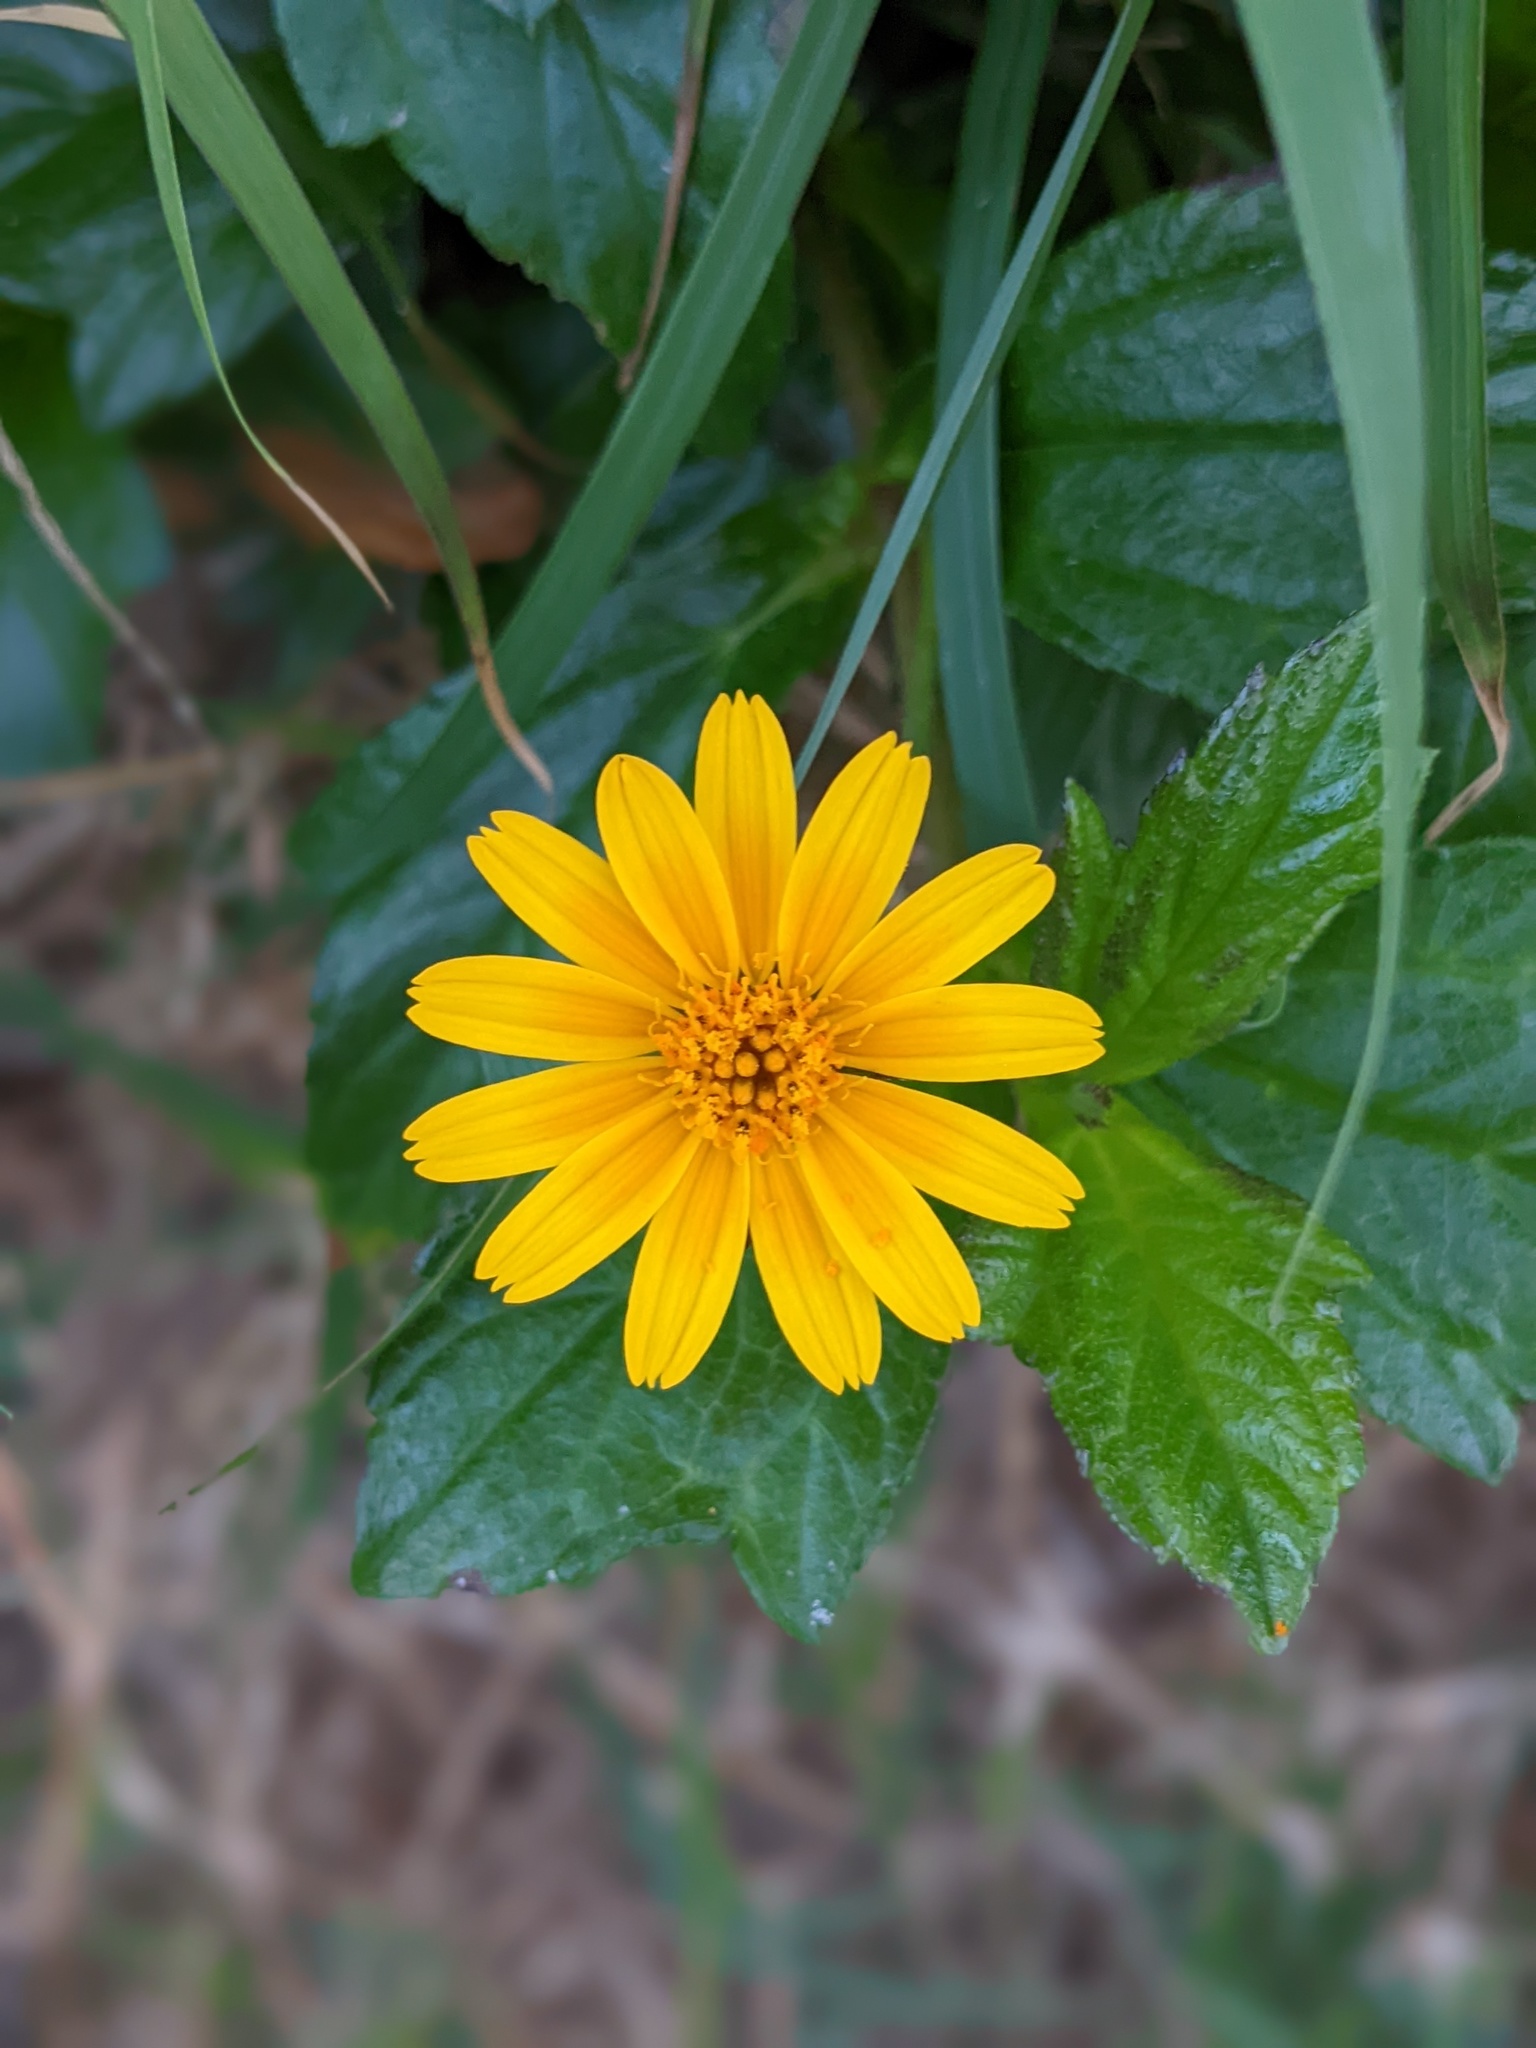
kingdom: Plantae
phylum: Tracheophyta
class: Magnoliopsida
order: Asterales
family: Asteraceae
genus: Sphagneticola
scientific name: Sphagneticola trilobata
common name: Bay biscayne creeping-oxeye
